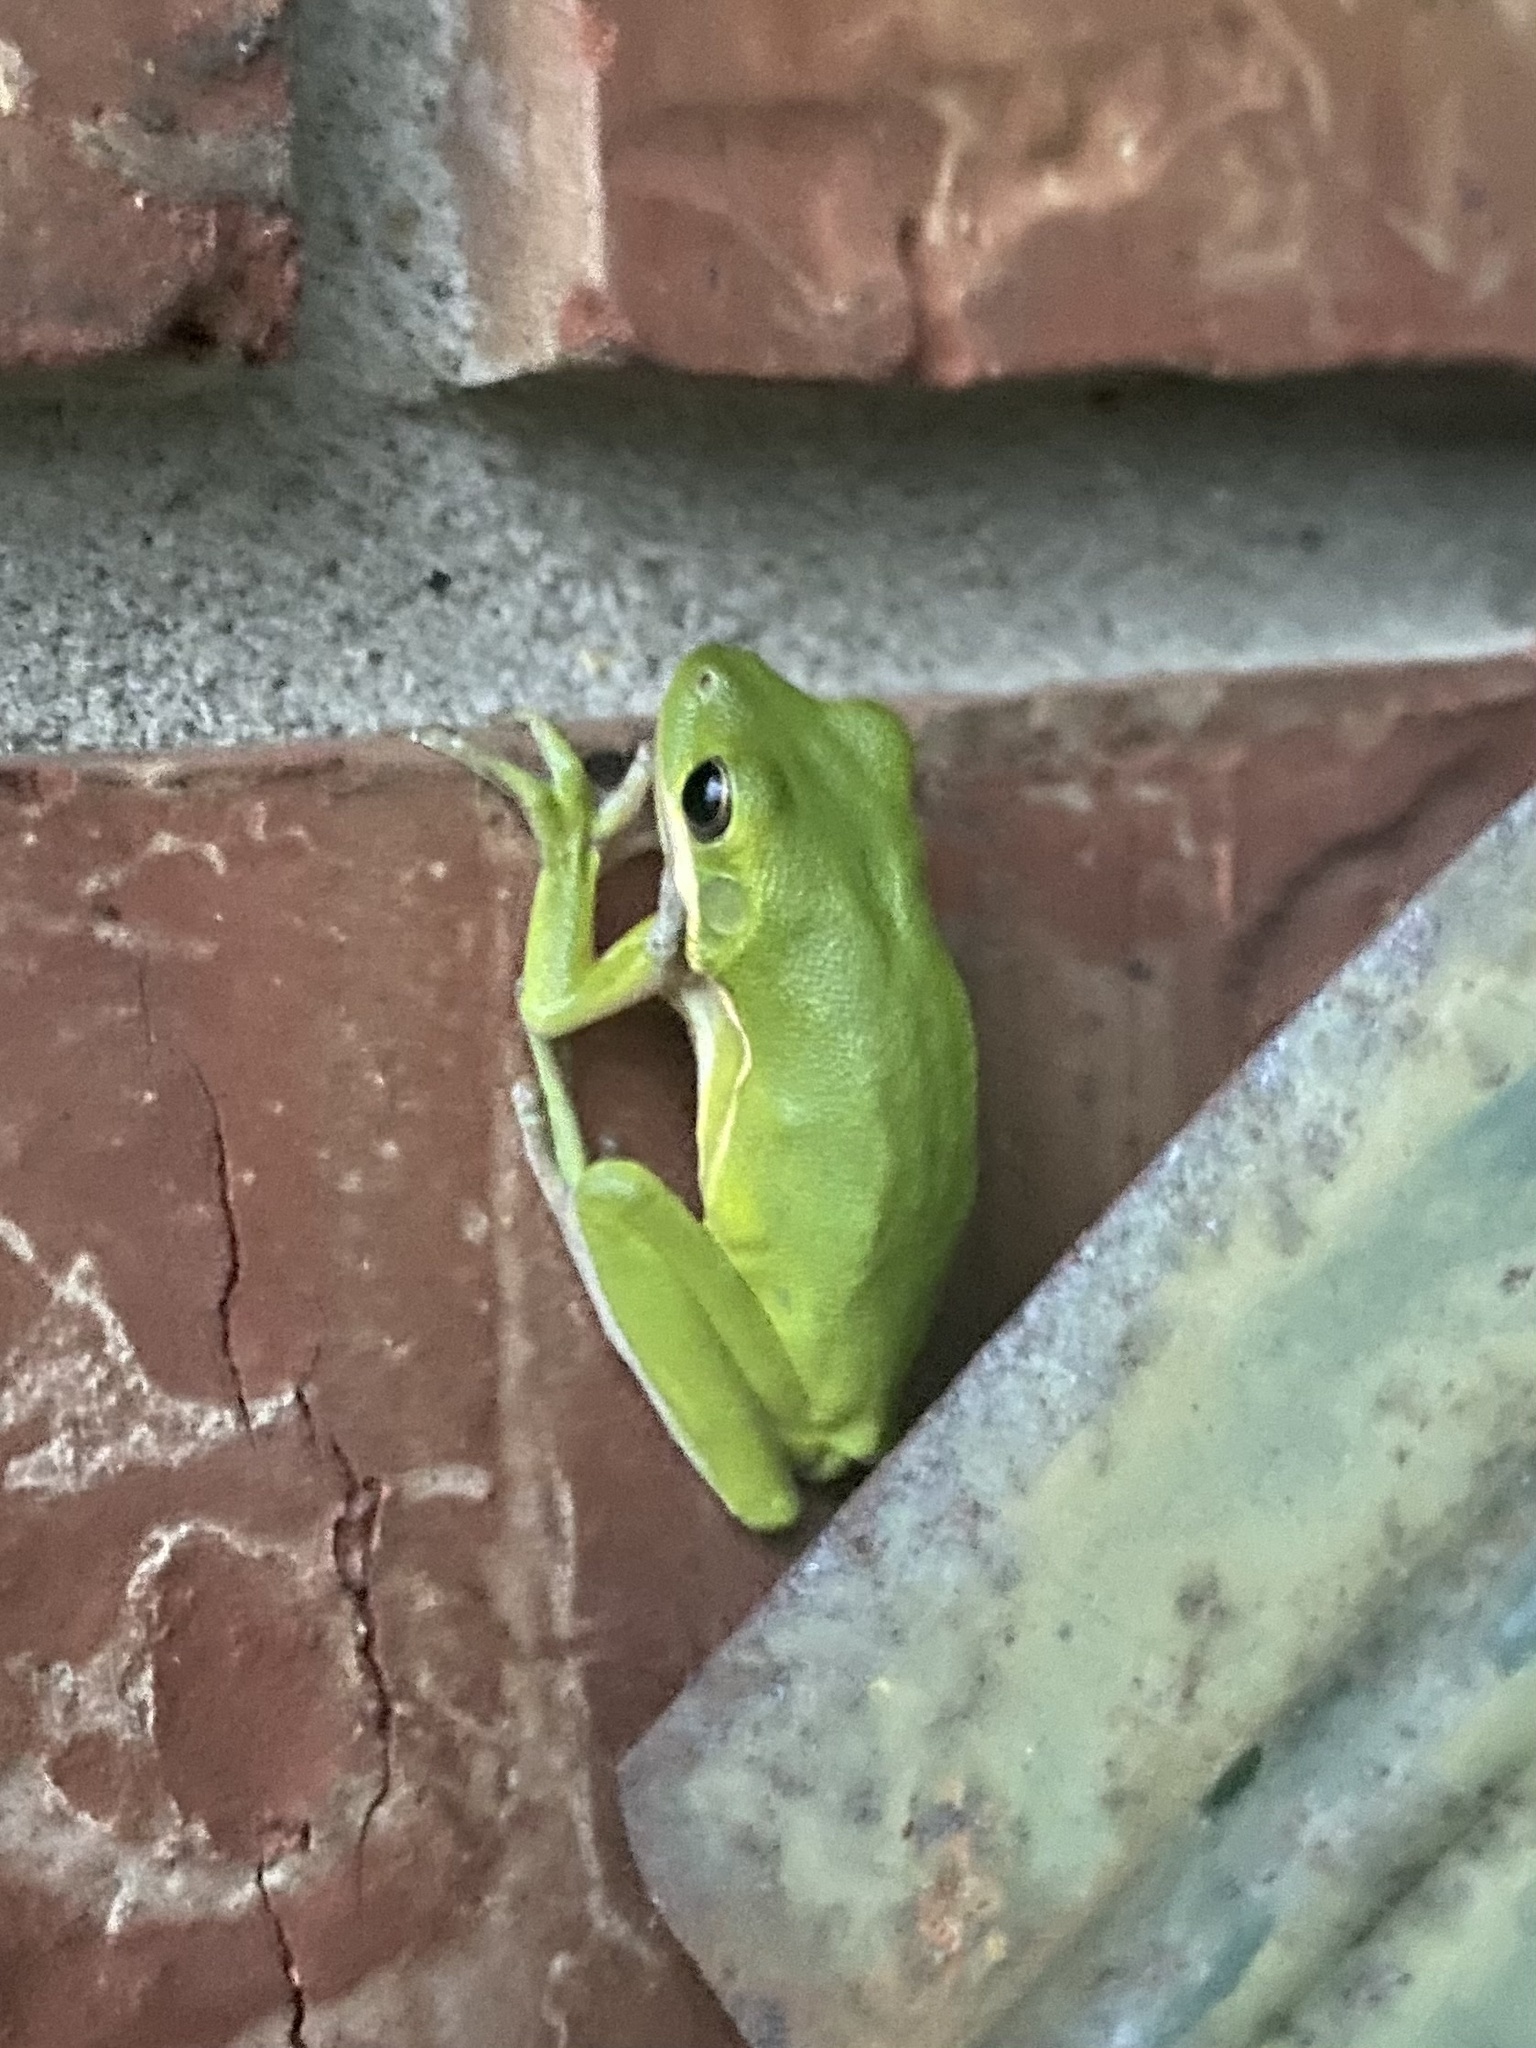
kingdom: Animalia
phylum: Chordata
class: Amphibia
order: Anura
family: Hylidae
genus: Dryophytes
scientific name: Dryophytes cinereus
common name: Green treefrog
